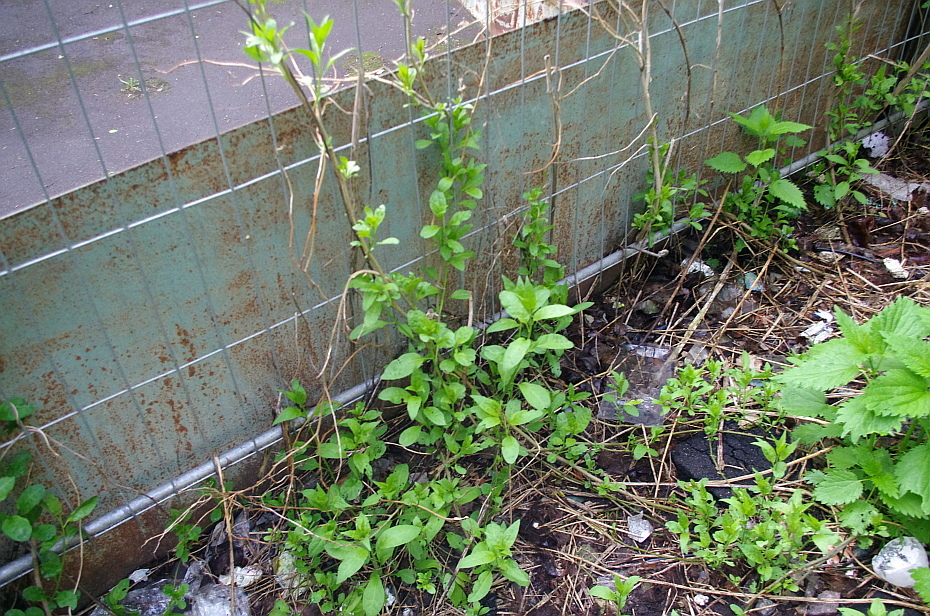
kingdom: Plantae
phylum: Tracheophyta
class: Magnoliopsida
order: Solanales
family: Solanaceae
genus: Solanum
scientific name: Solanum dulcamara
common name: Climbing nightshade
